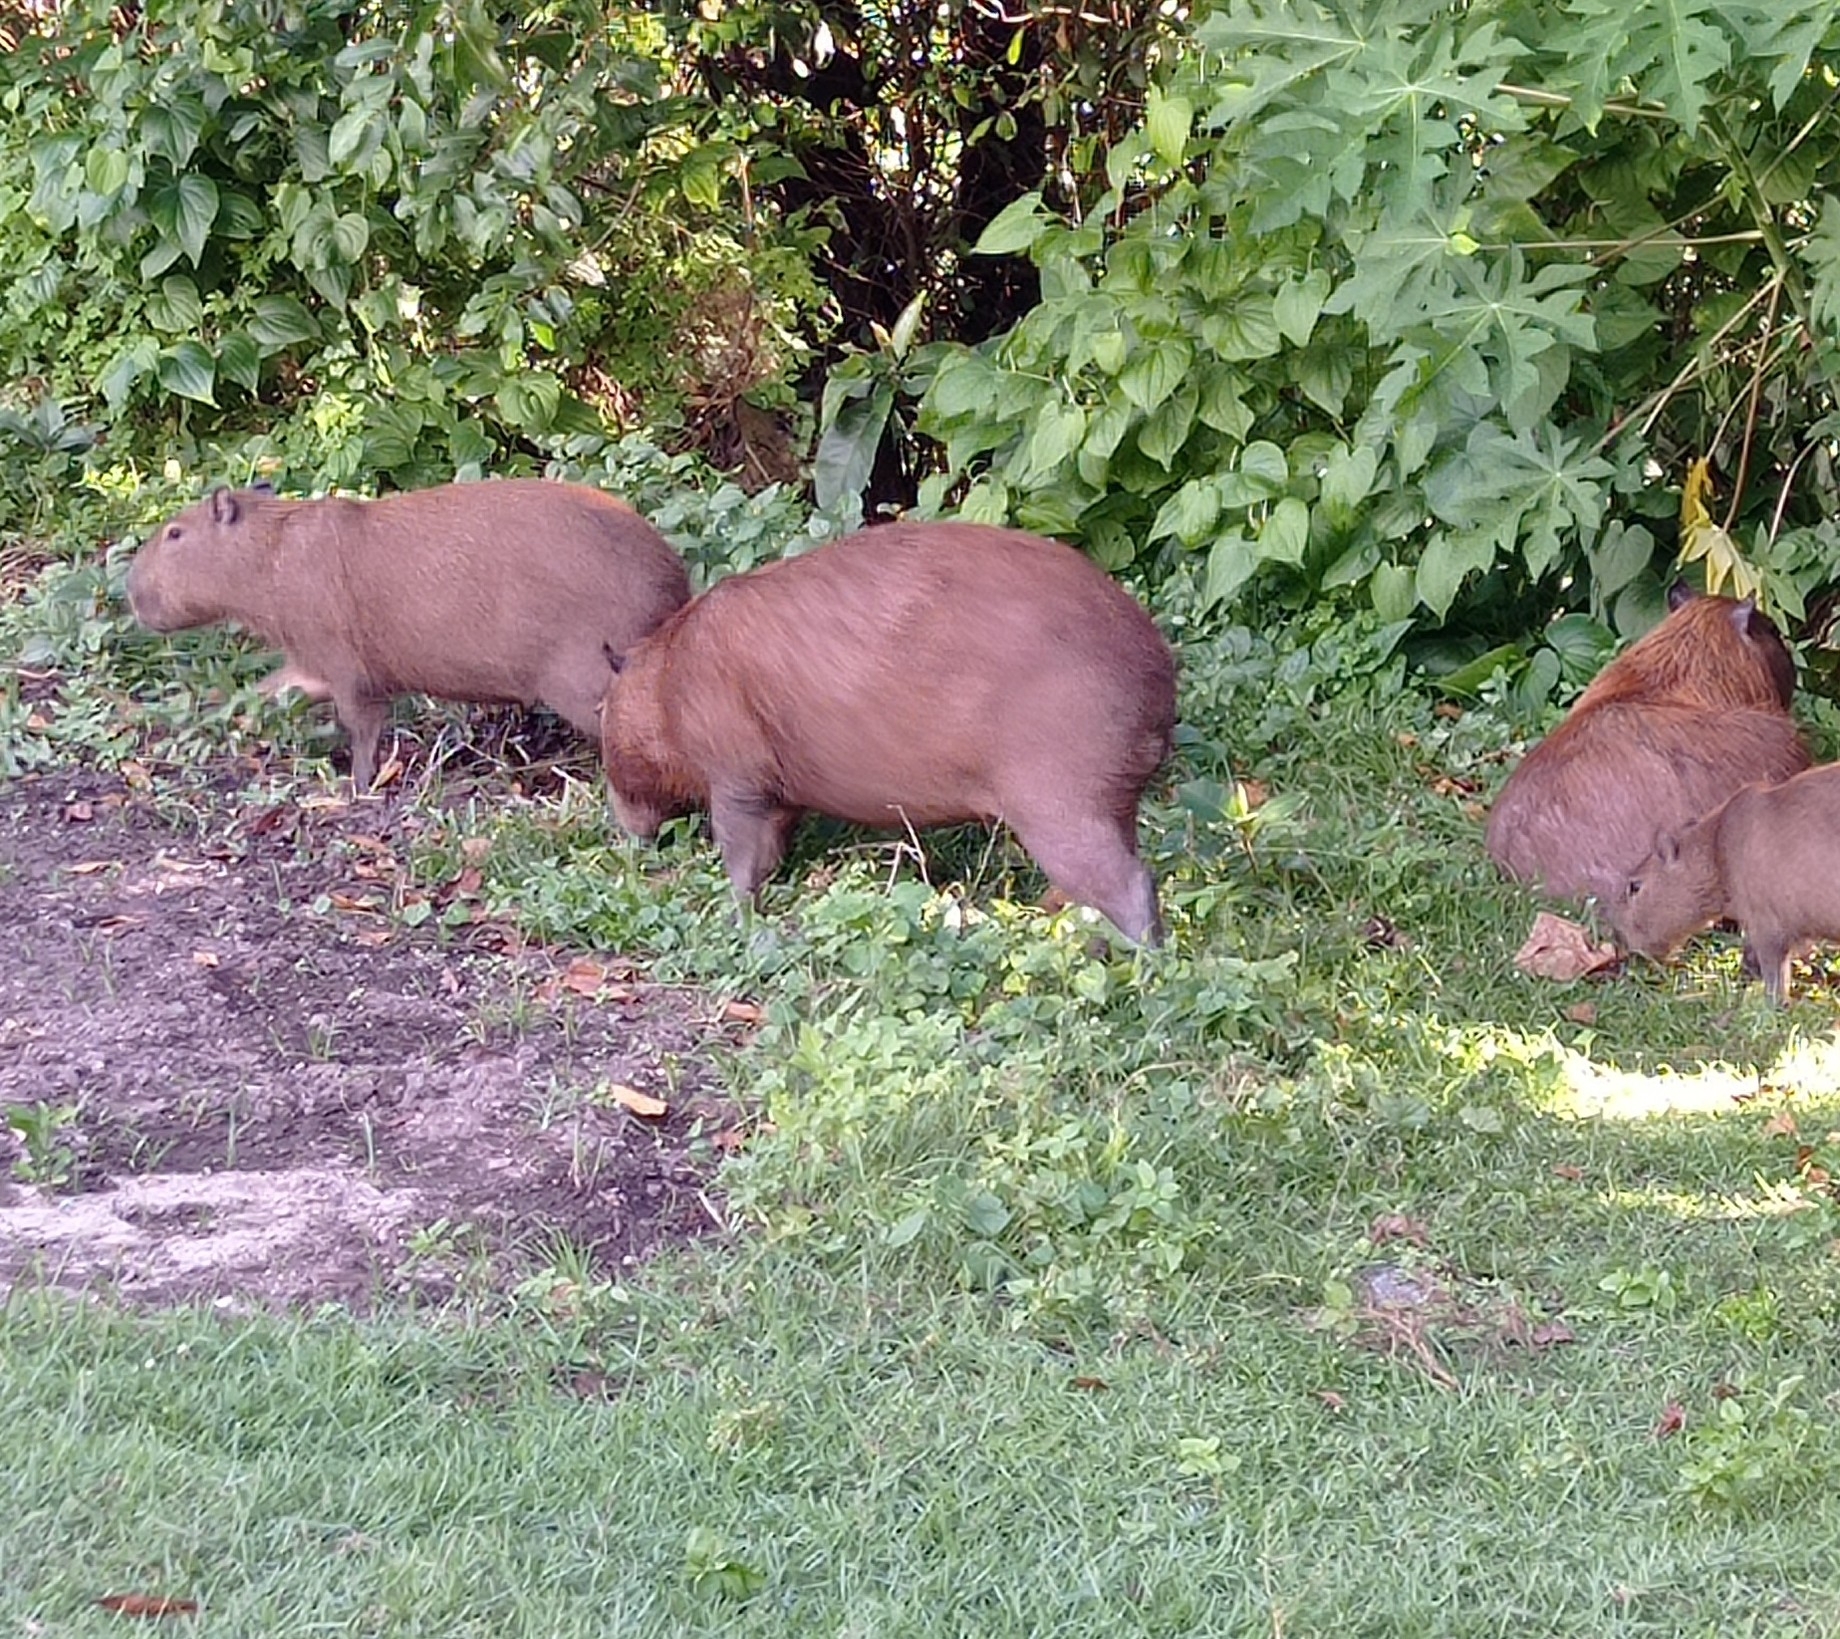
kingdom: Animalia
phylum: Chordata
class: Mammalia
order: Rodentia
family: Caviidae
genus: Hydrochoerus
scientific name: Hydrochoerus hydrochaeris
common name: Capybara
